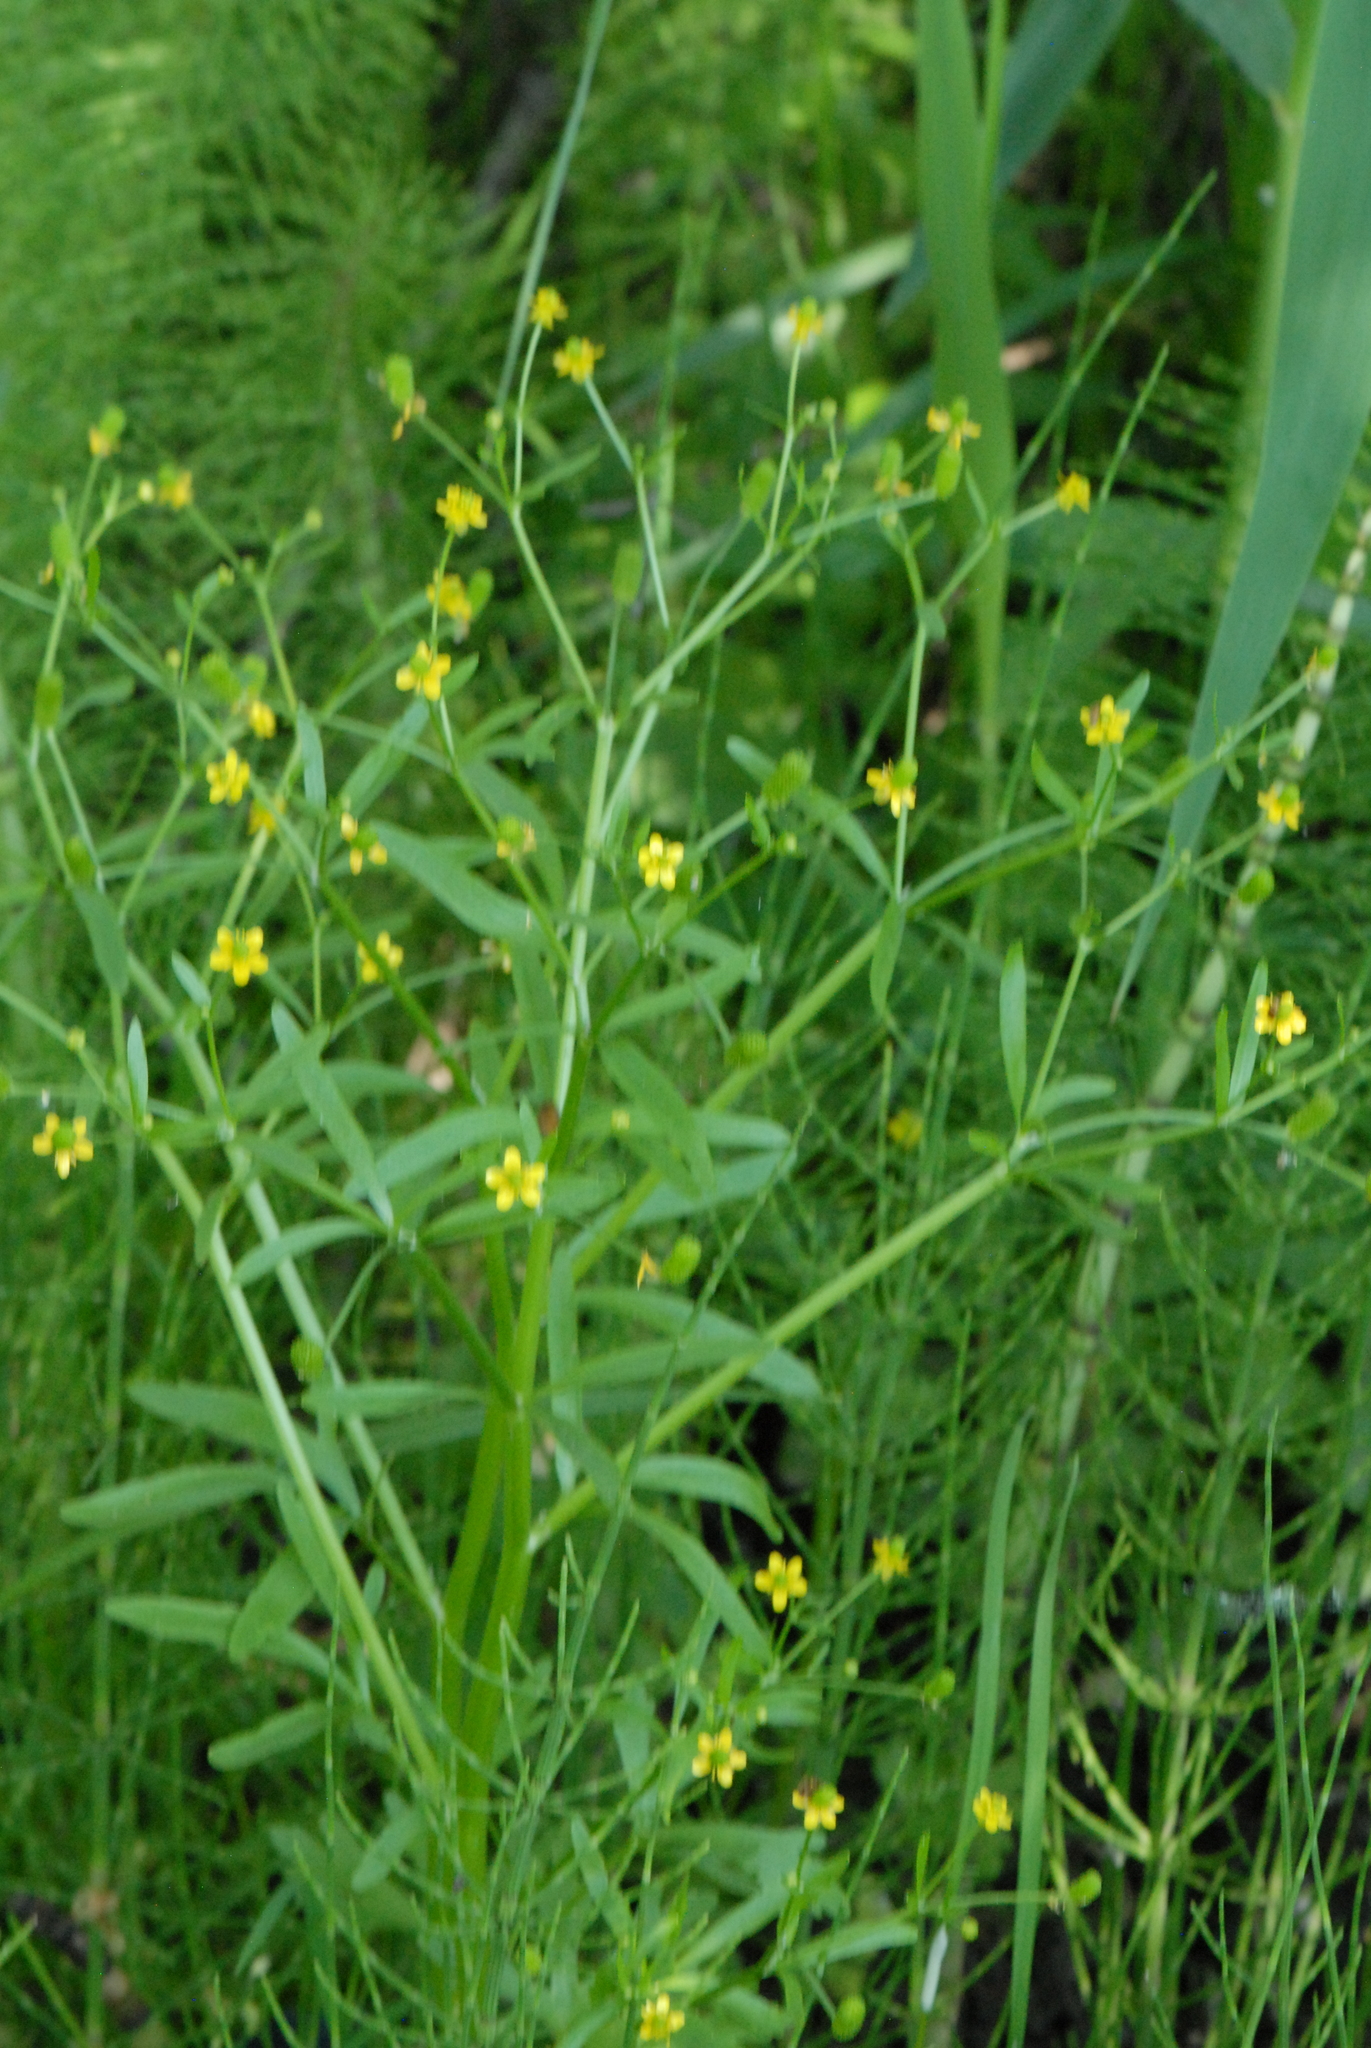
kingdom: Plantae
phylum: Tracheophyta
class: Magnoliopsida
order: Ranunculales
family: Ranunculaceae
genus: Ranunculus
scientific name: Ranunculus sceleratus
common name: Celery-leaved buttercup
